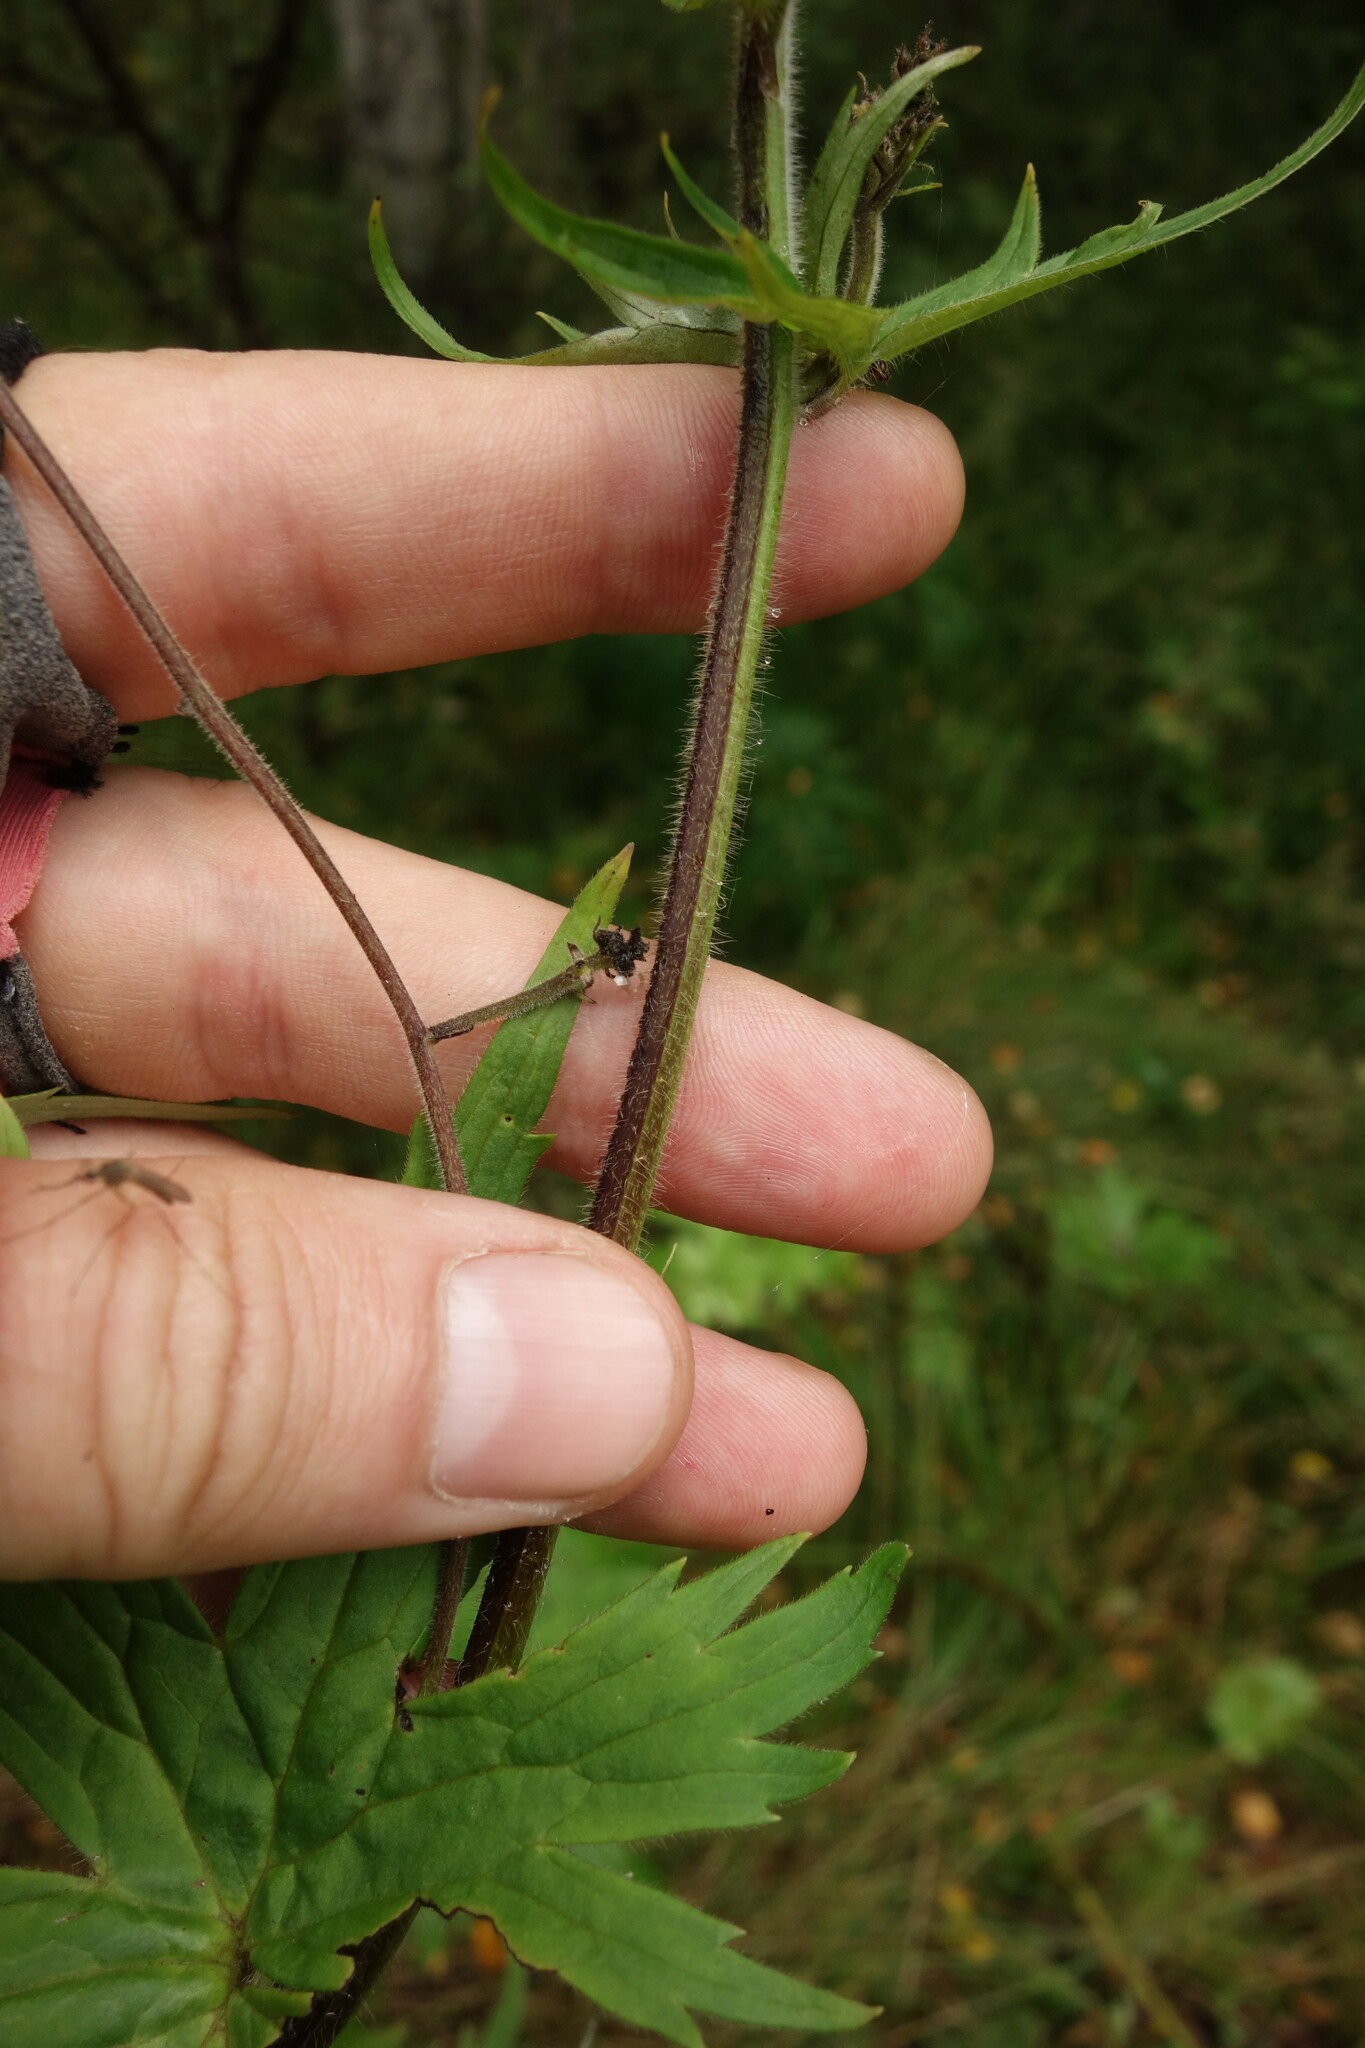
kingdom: Plantae
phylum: Tracheophyta
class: Magnoliopsida
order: Ranunculales
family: Ranunculaceae
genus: Aconitum
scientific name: Aconitum septentrionale
